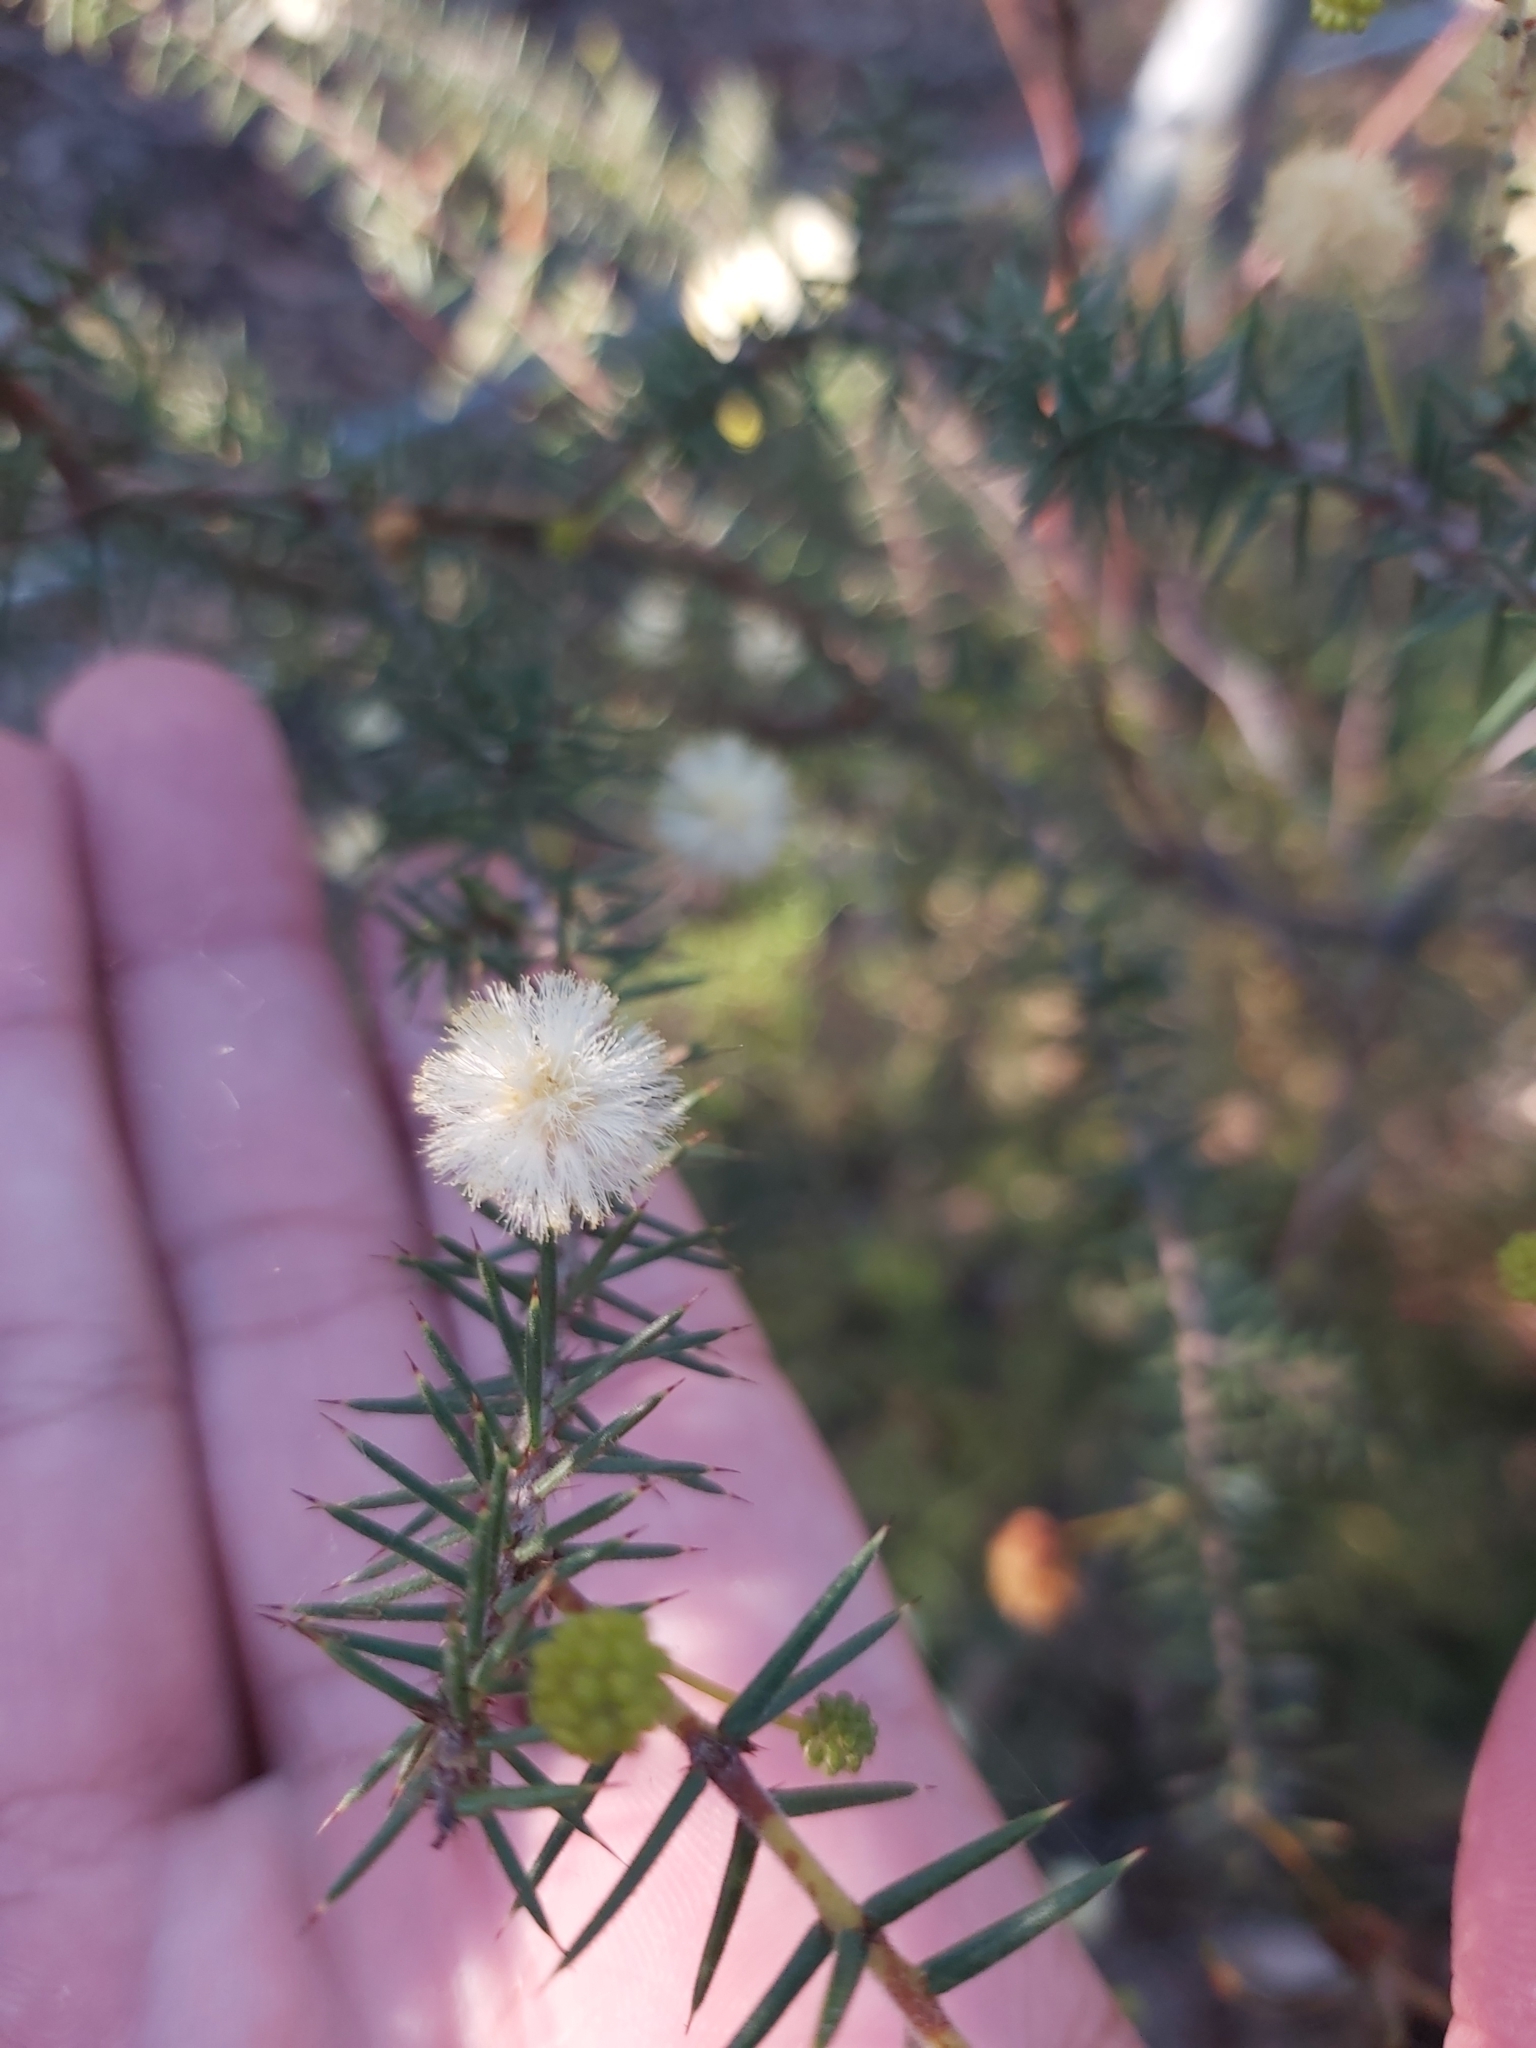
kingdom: Plantae
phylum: Tracheophyta
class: Magnoliopsida
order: Fabales
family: Fabaceae
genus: Acacia
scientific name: Acacia ulicifolia
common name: Juniper wattle
